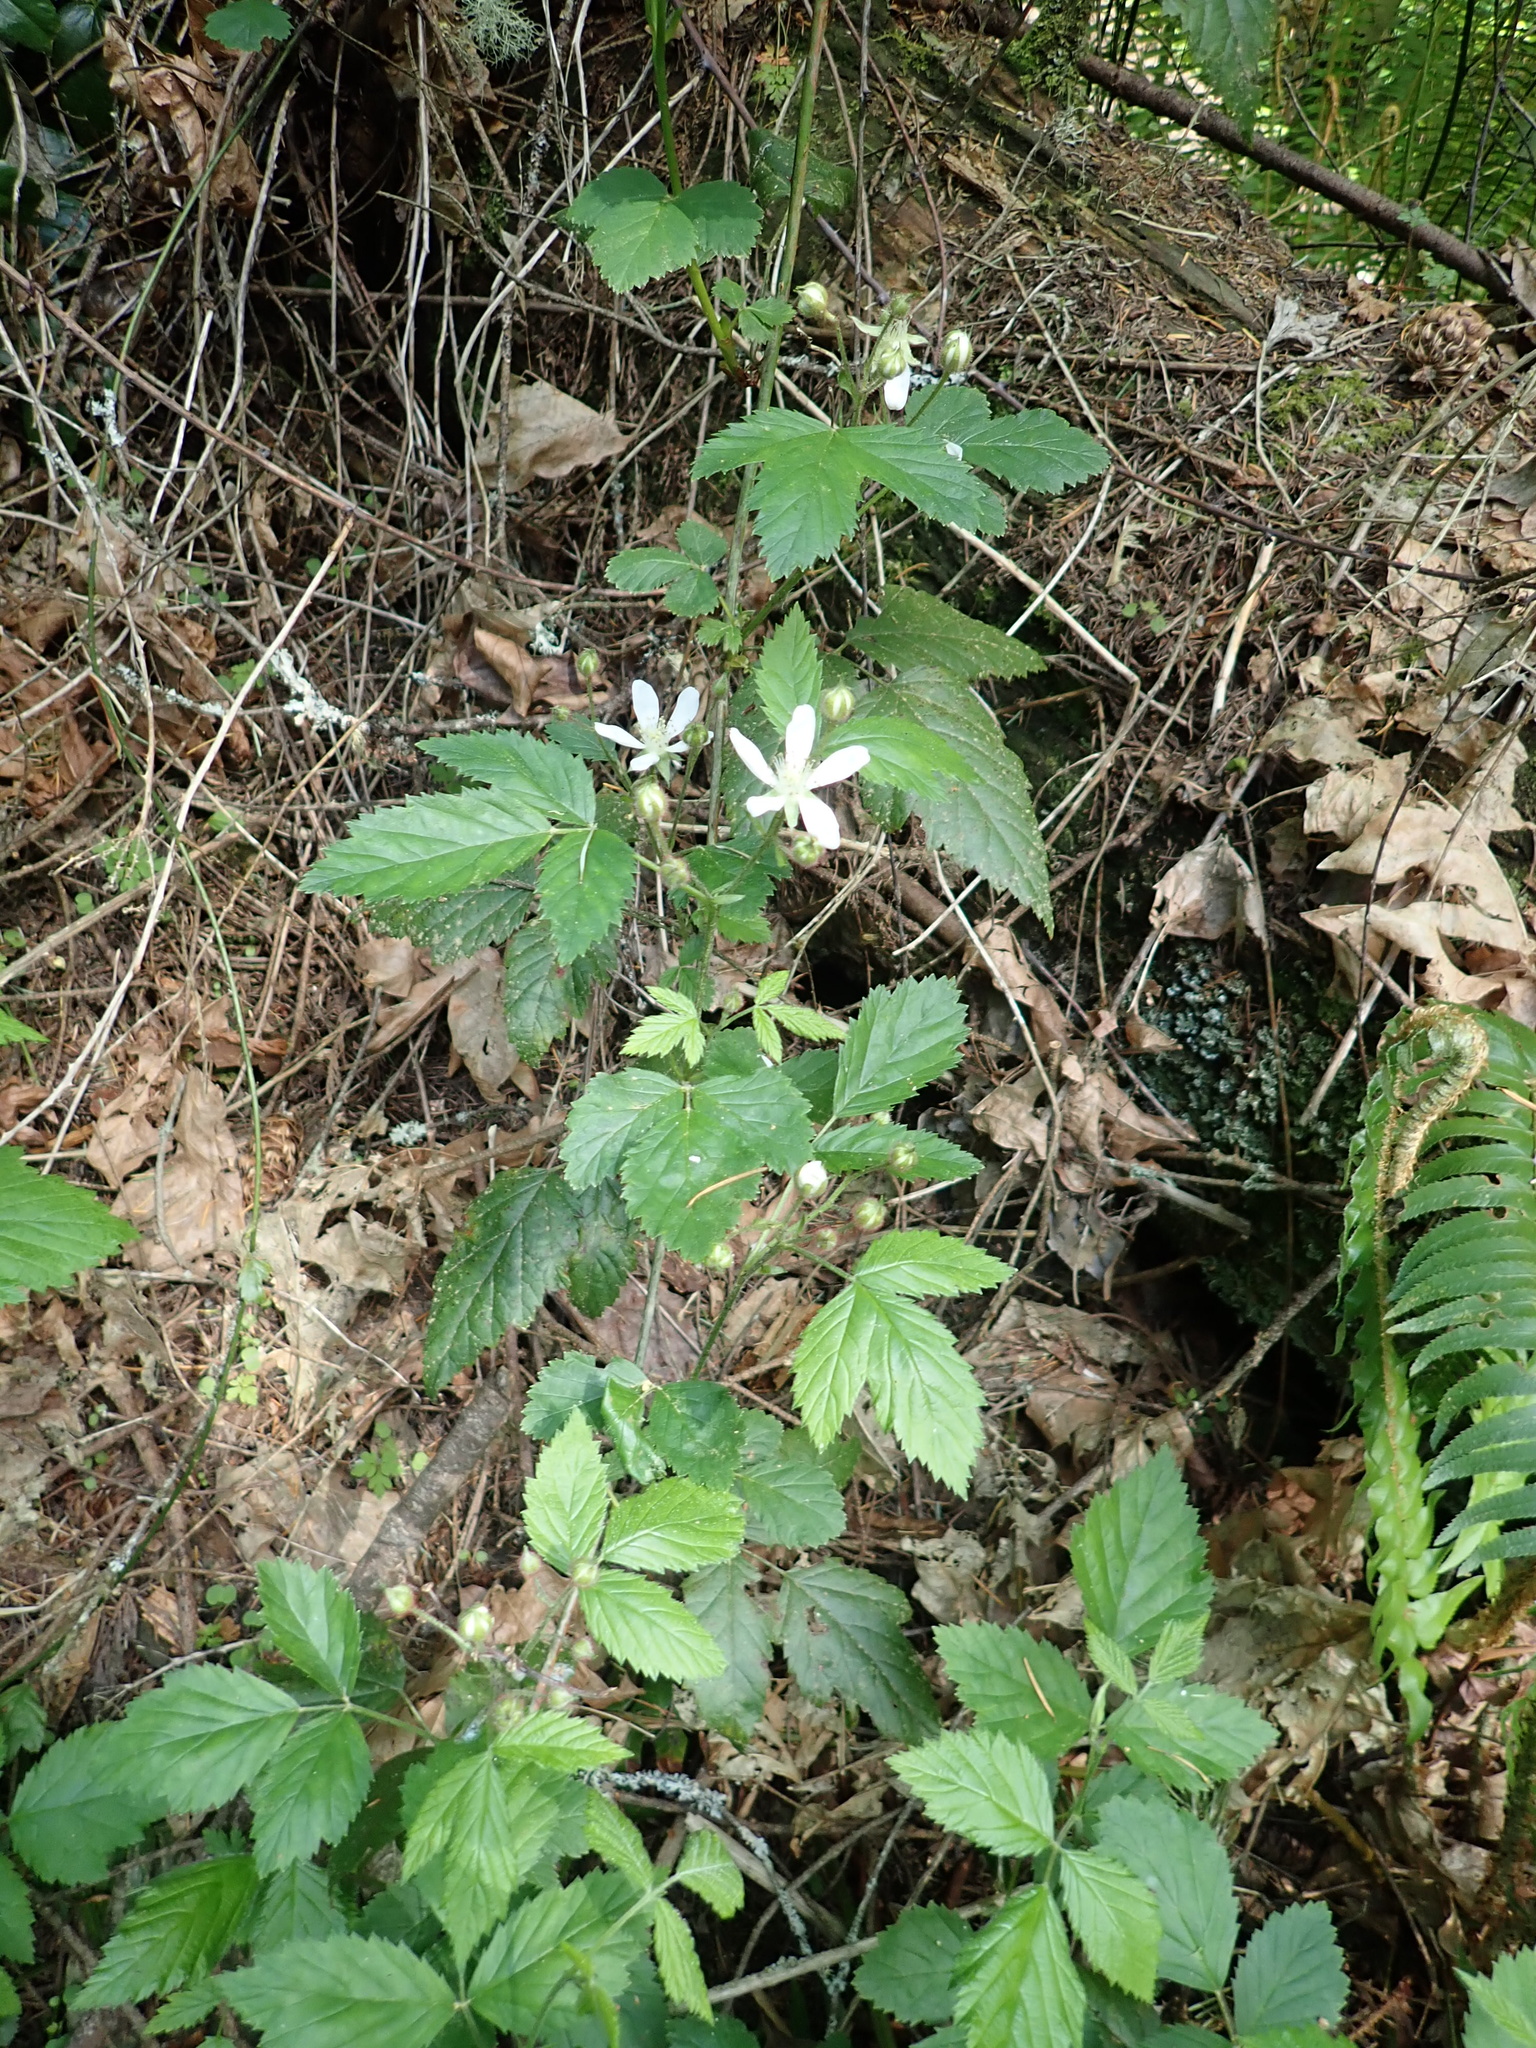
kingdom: Plantae
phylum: Tracheophyta
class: Magnoliopsida
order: Rosales
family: Rosaceae
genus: Rubus
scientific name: Rubus ursinus
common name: Pacific blackberry
